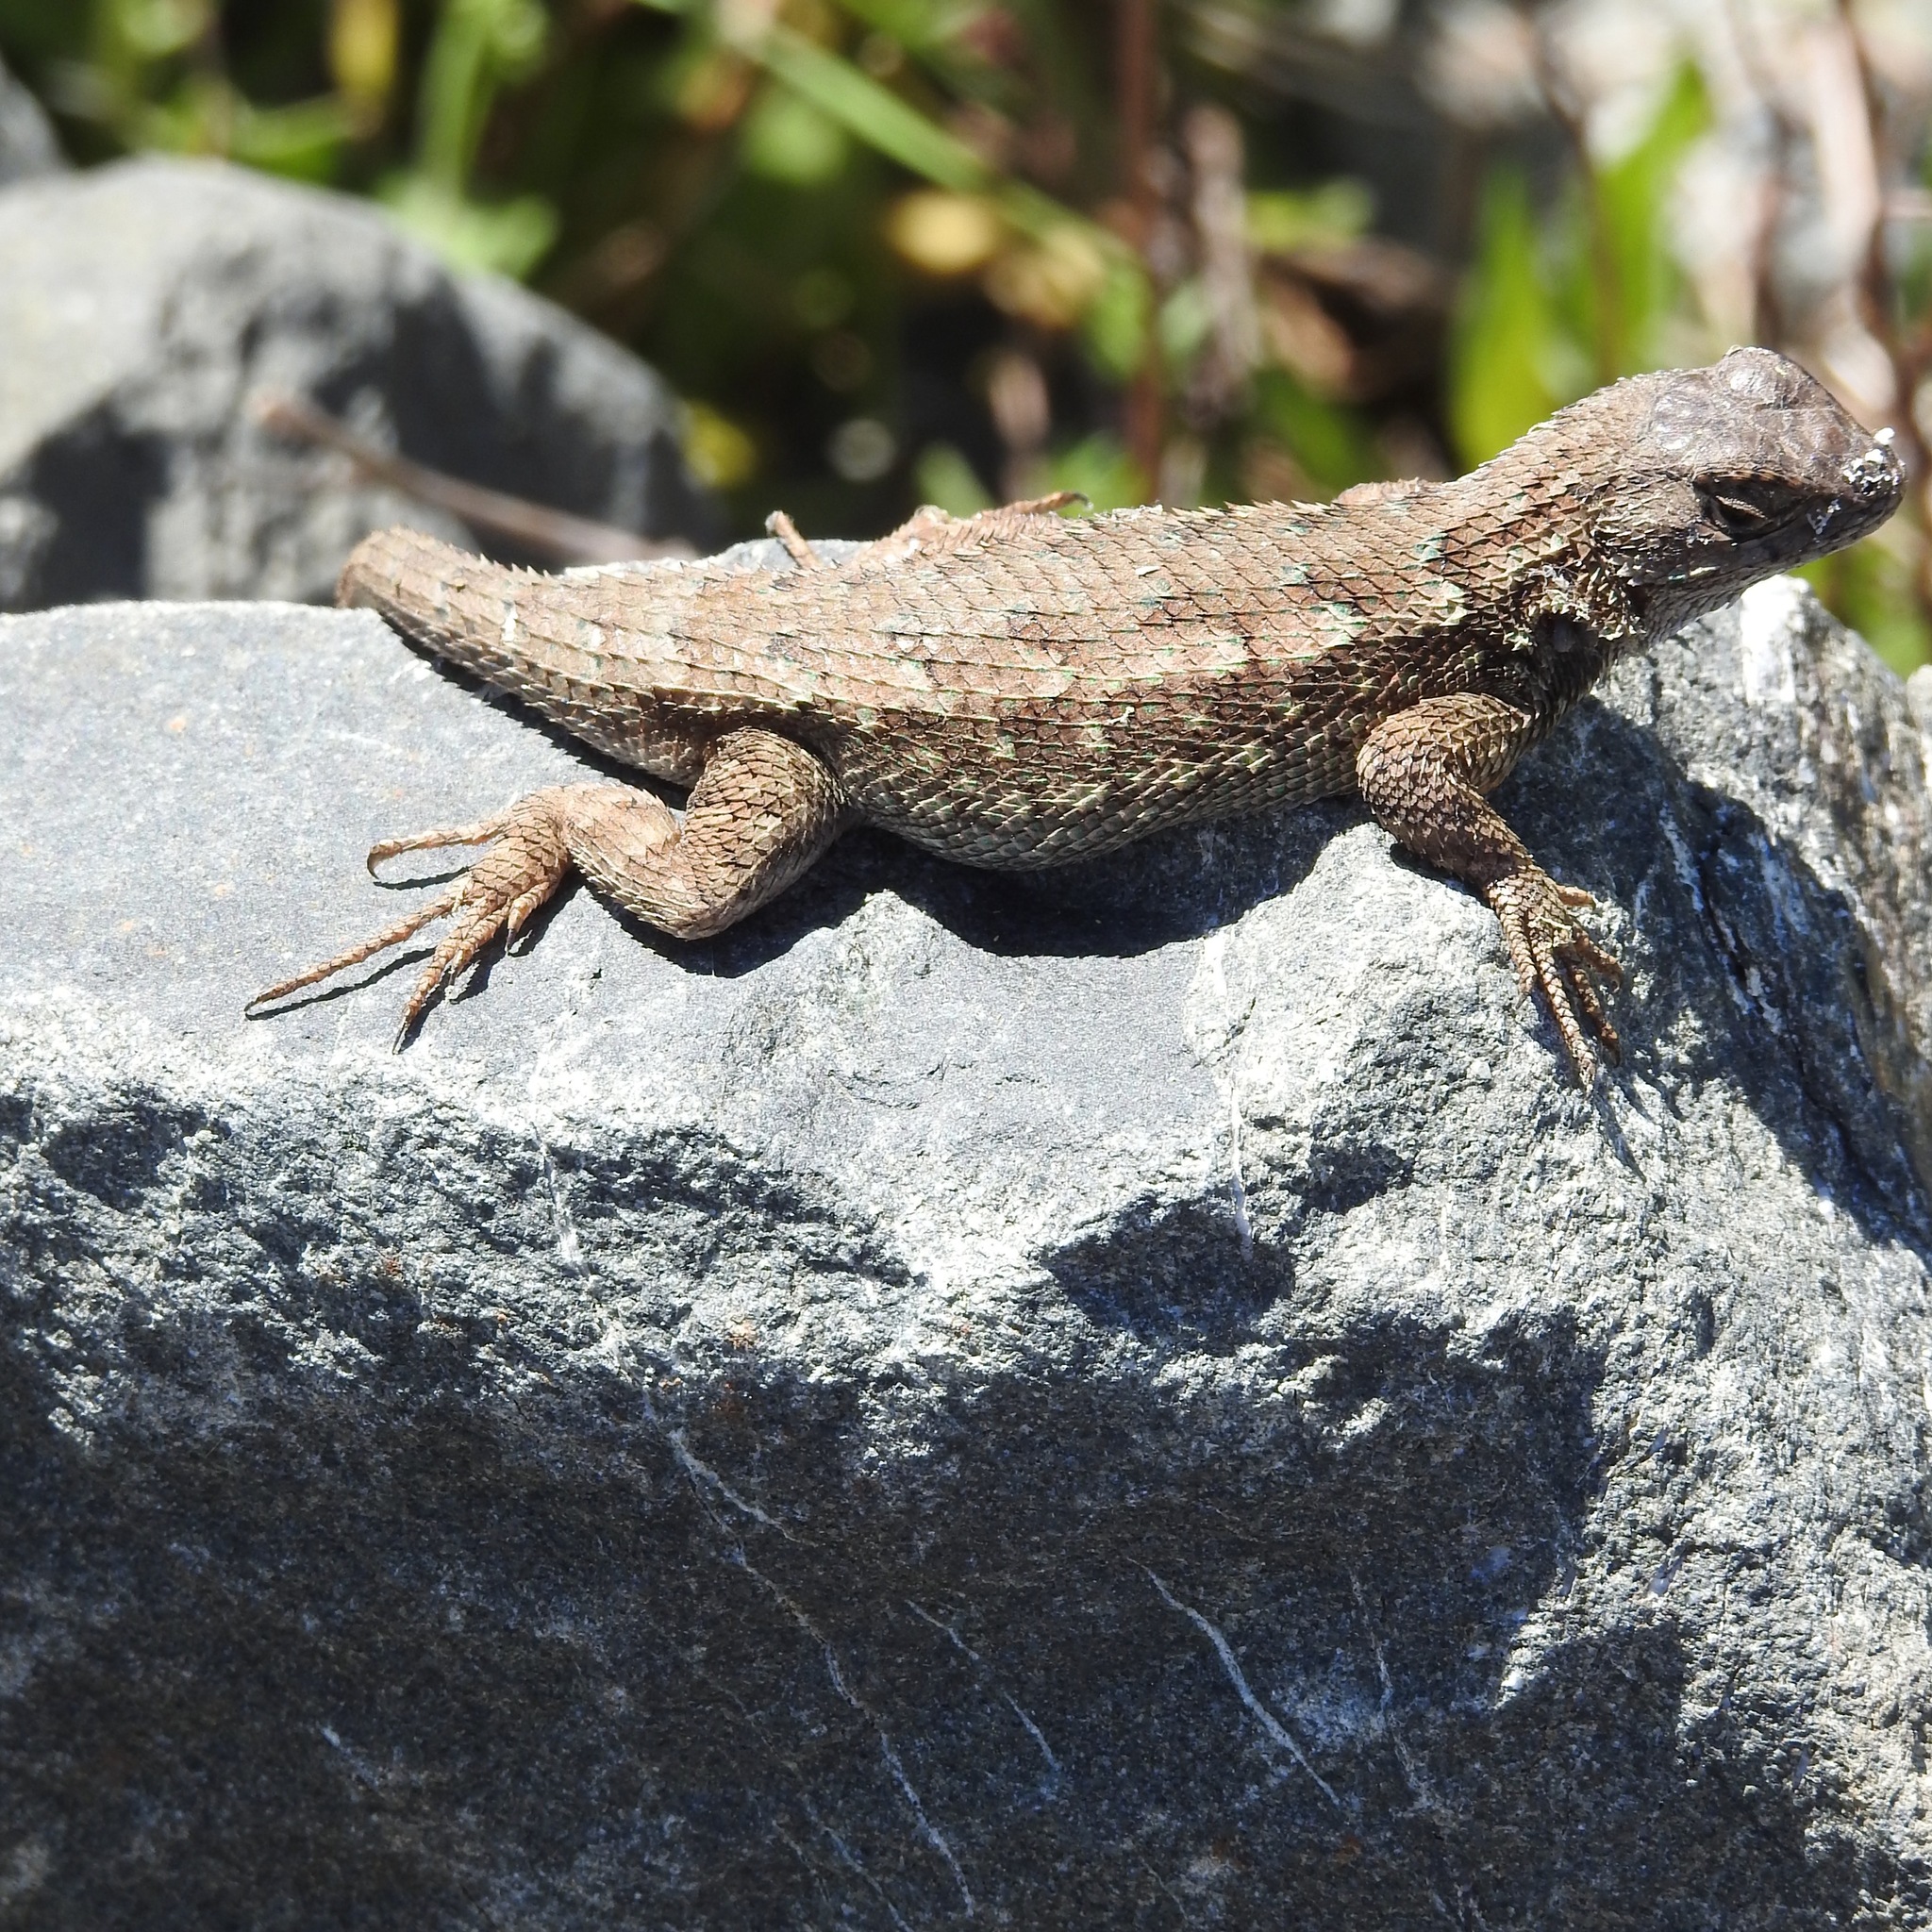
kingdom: Animalia
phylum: Chordata
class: Squamata
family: Phrynosomatidae
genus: Sceloporus
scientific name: Sceloporus occidentalis
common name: Western fence lizard
